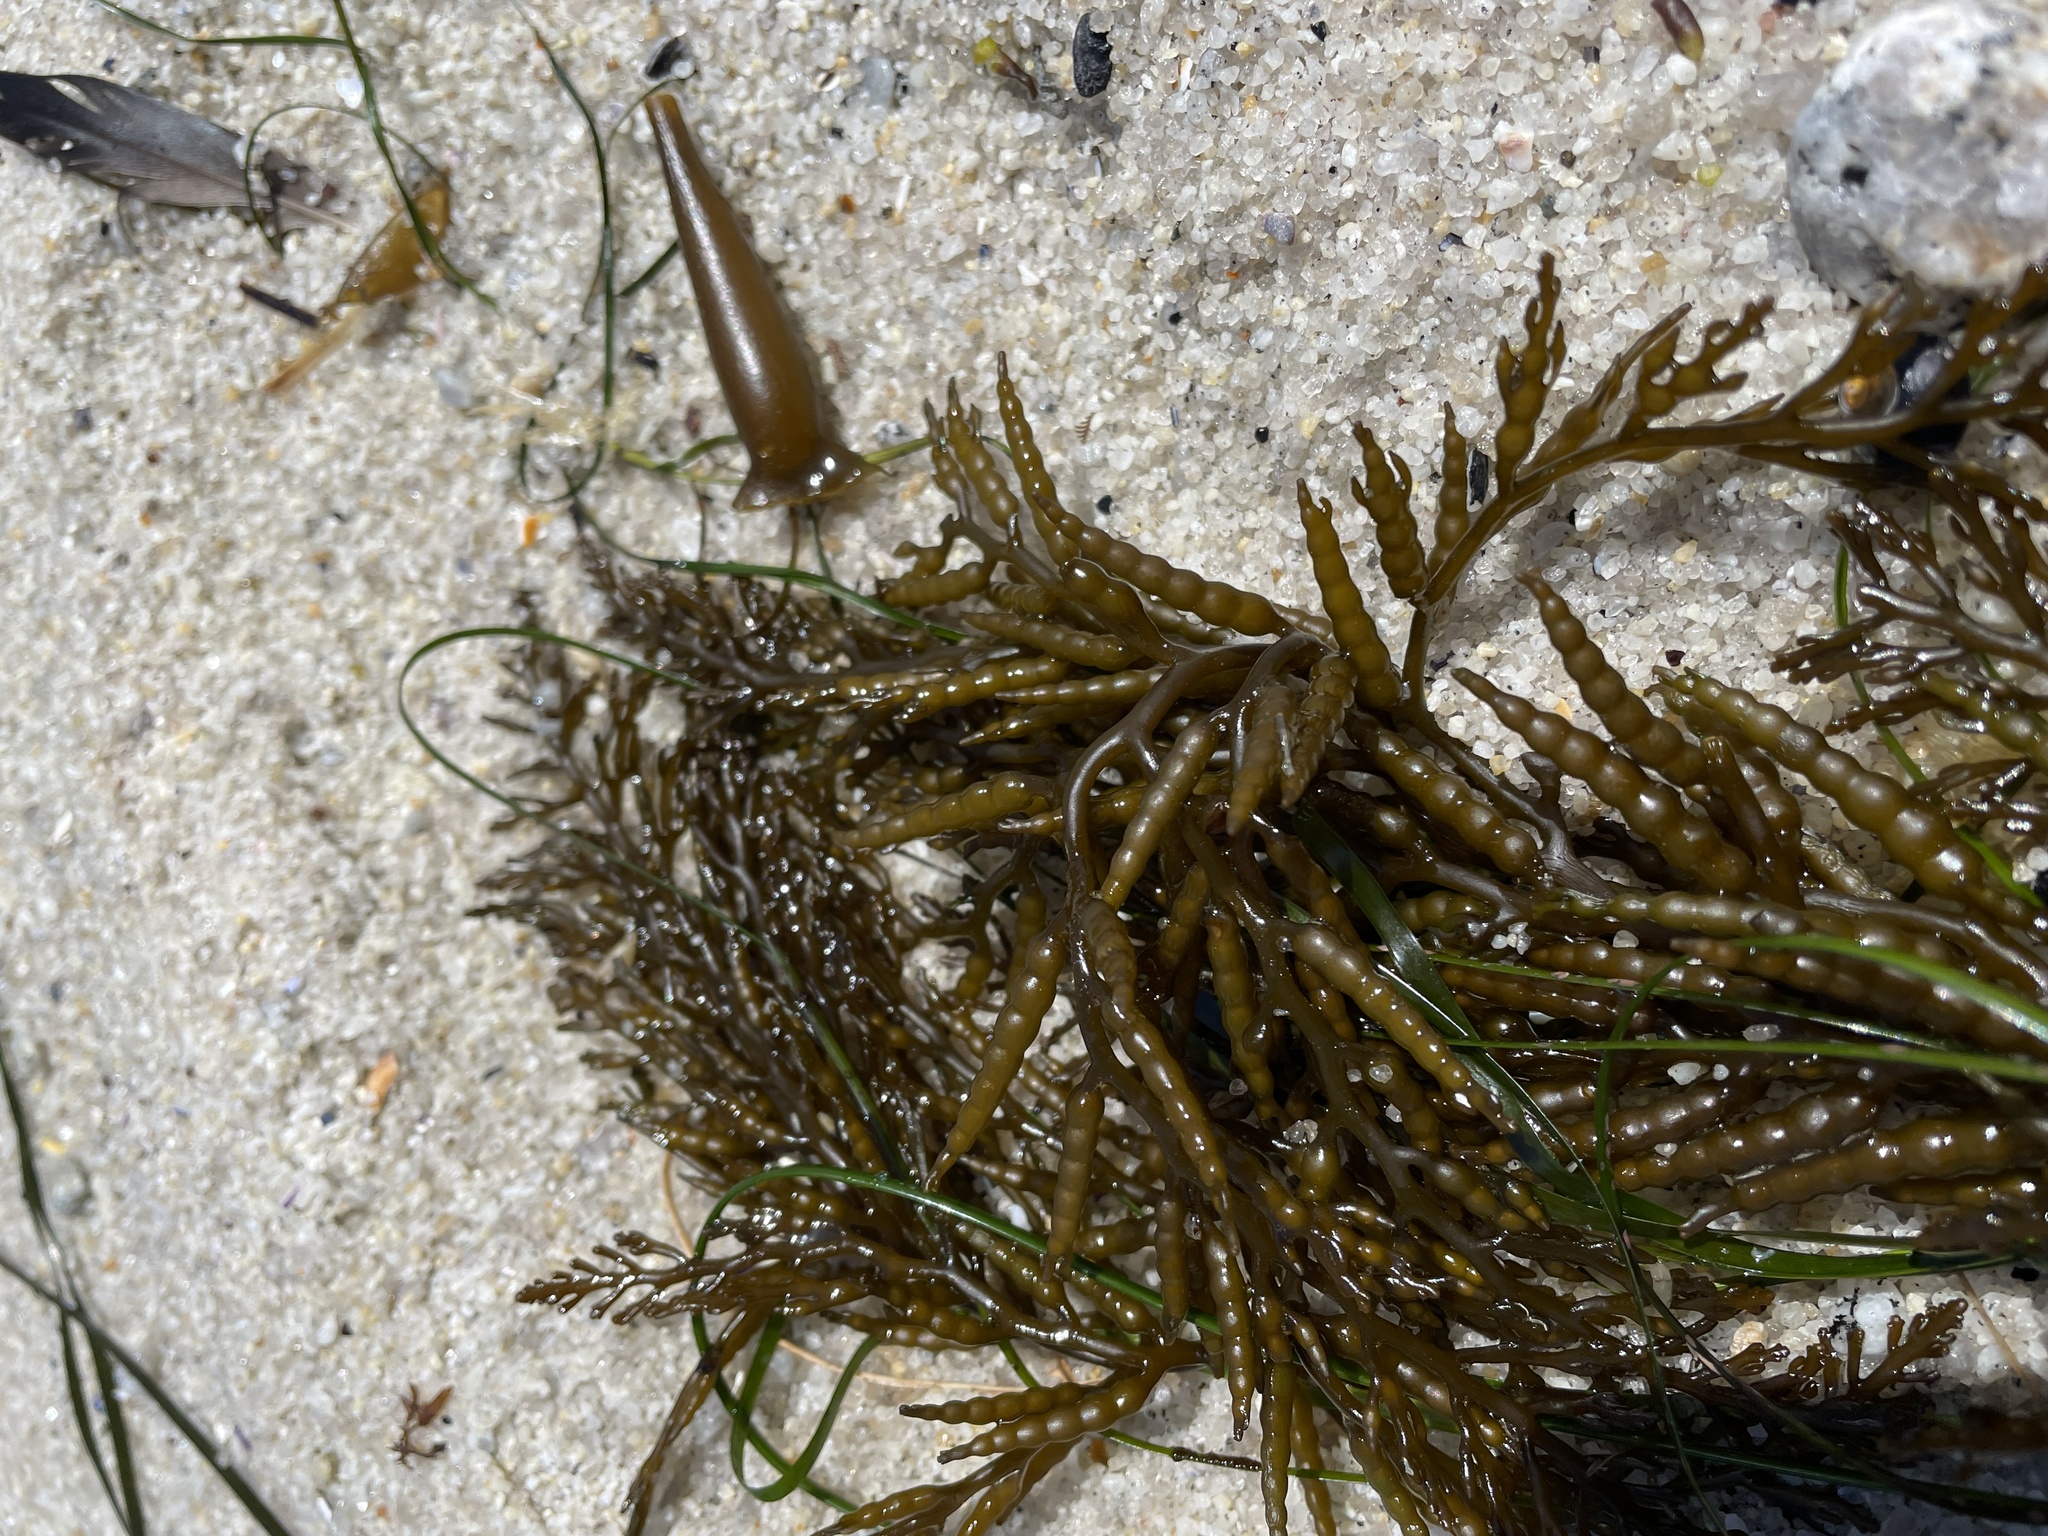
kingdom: Chromista
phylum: Ochrophyta
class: Phaeophyceae
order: Fucales
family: Sargassaceae
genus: Stephanocystis
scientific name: Stephanocystis
